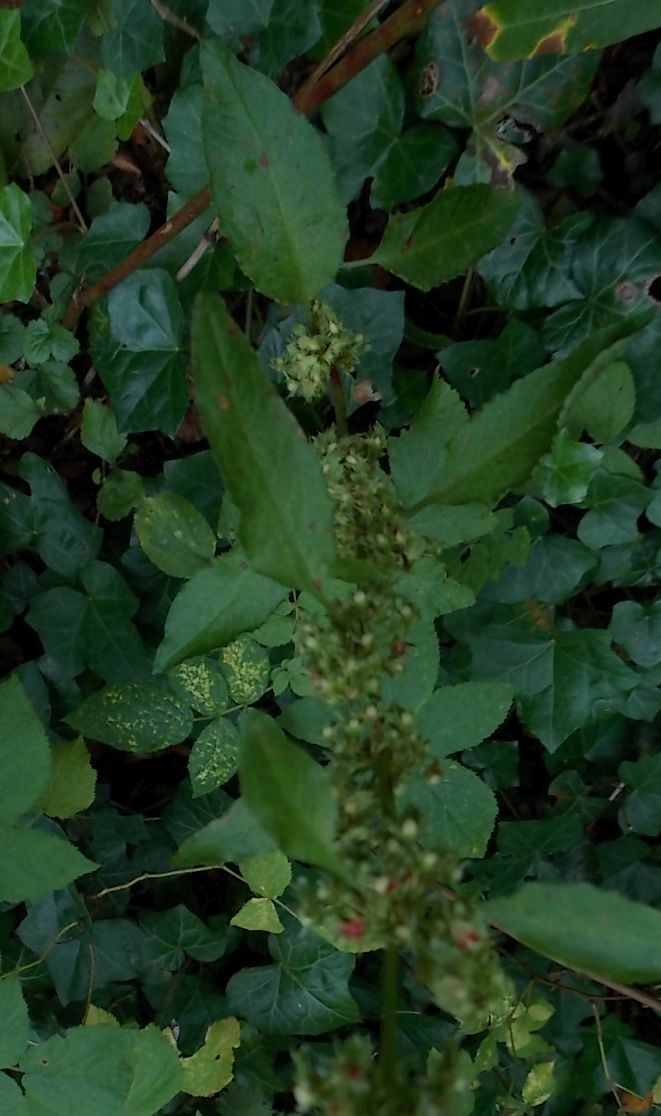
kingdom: Plantae
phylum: Tracheophyta
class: Magnoliopsida
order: Caryophyllales
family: Polygonaceae
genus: Rumex
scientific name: Rumex sanguineus
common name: Wood dock
